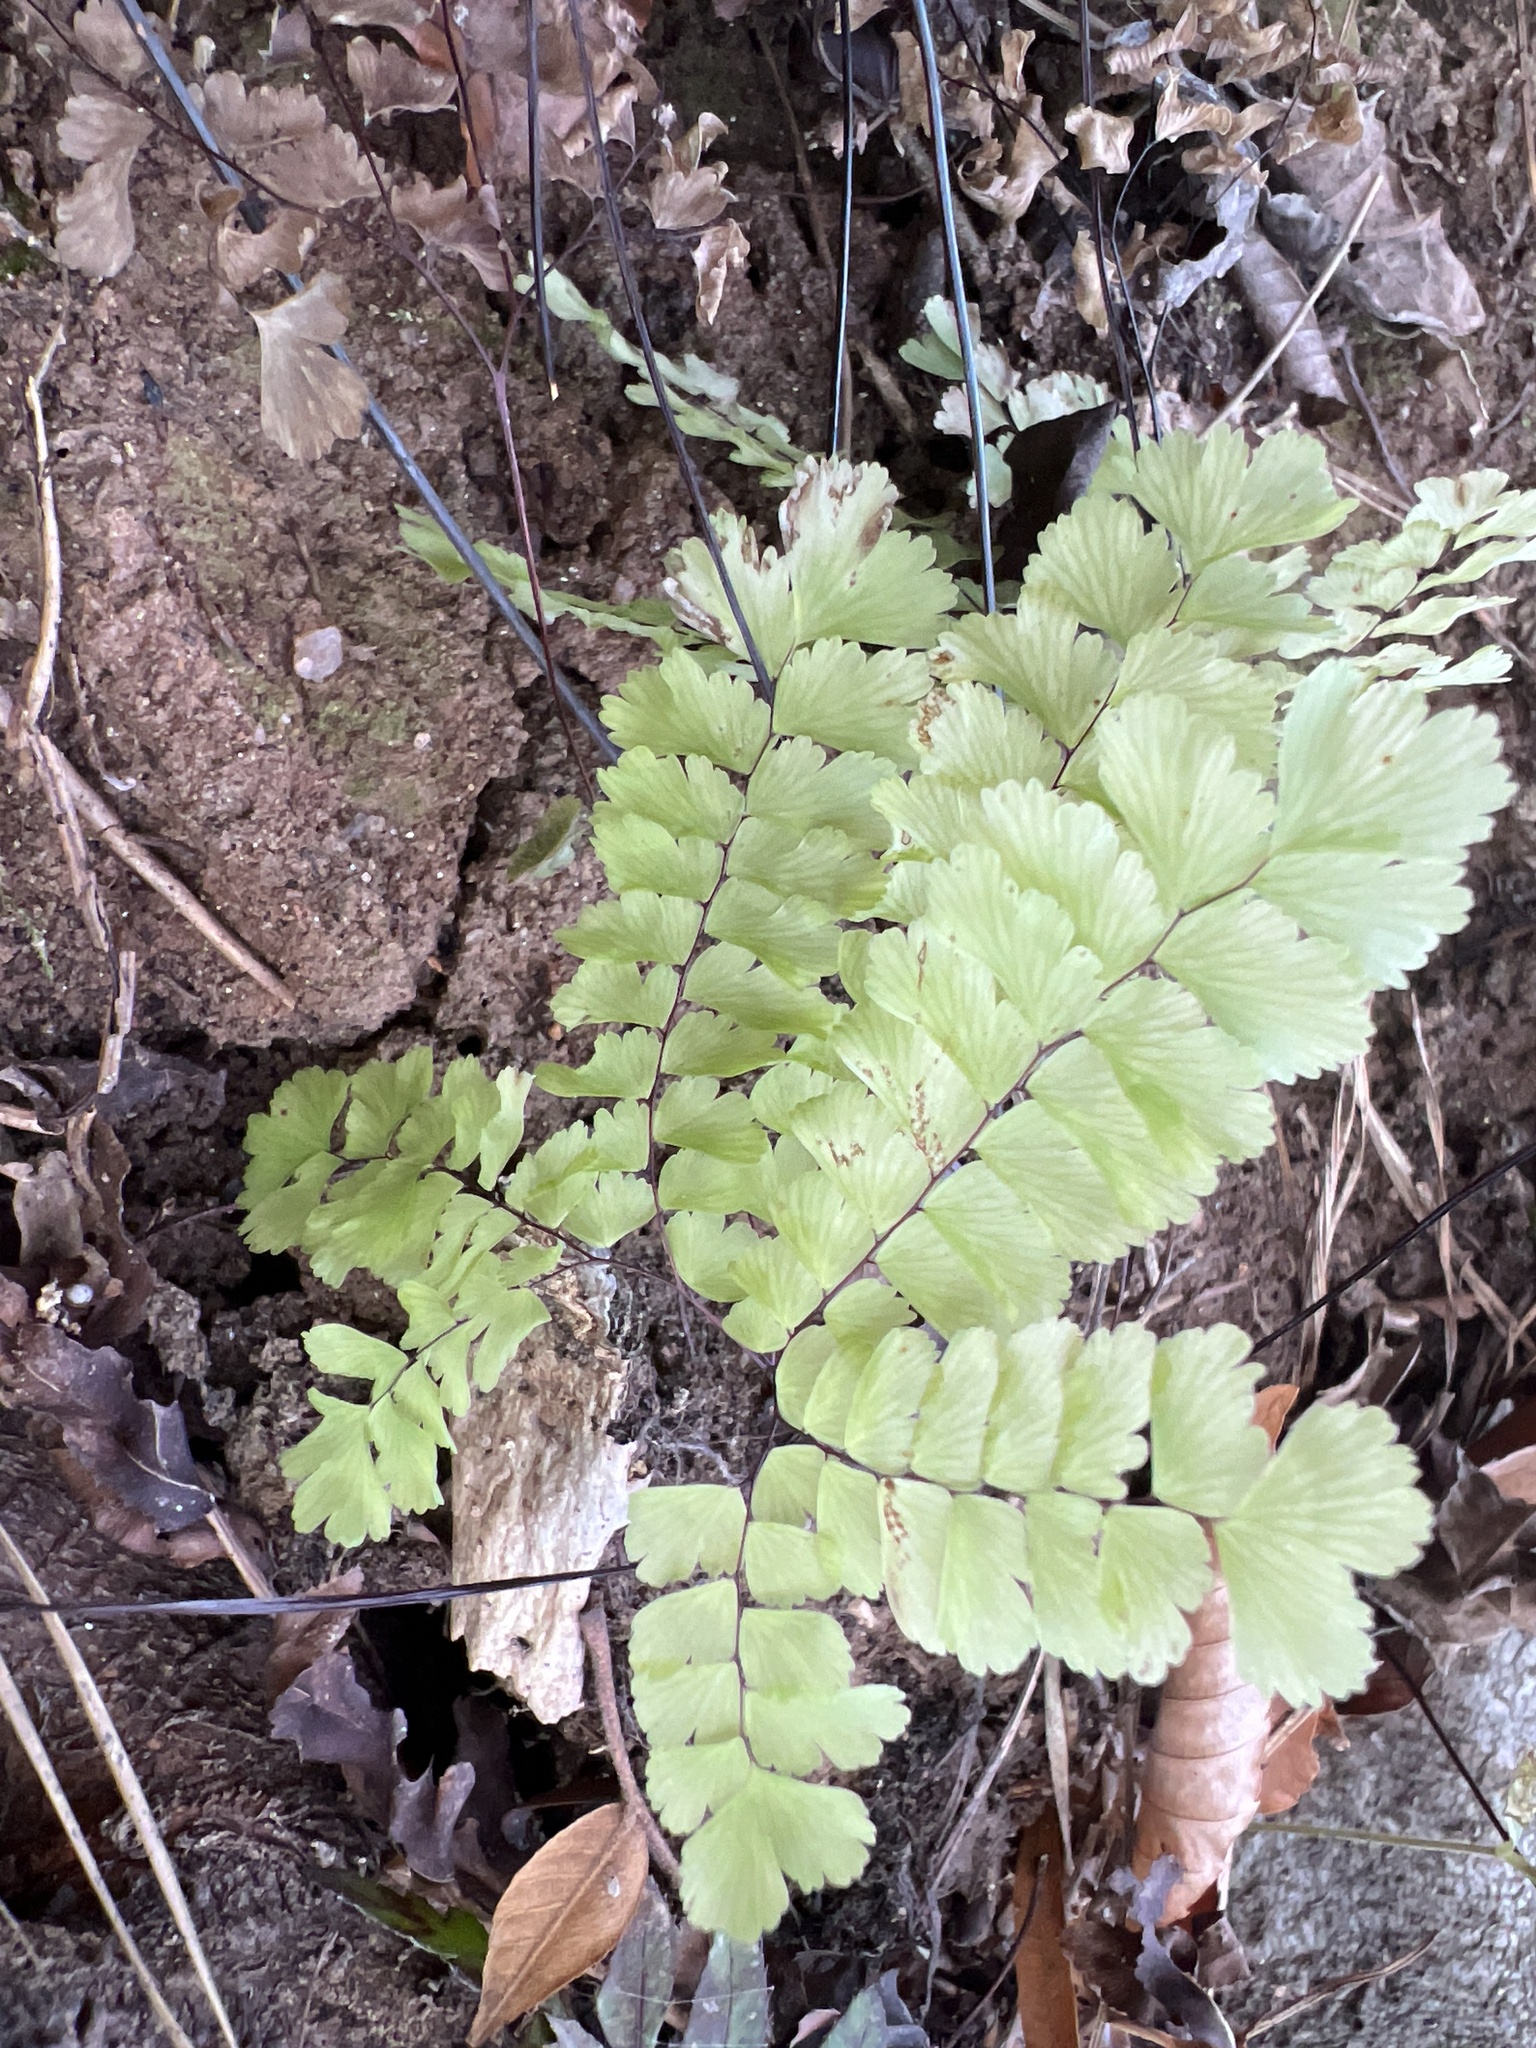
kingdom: Plantae
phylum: Tracheophyta
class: Polypodiopsida
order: Polypodiales
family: Pteridaceae
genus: Adiantum
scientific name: Adiantum pedatum
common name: Five-finger fern
